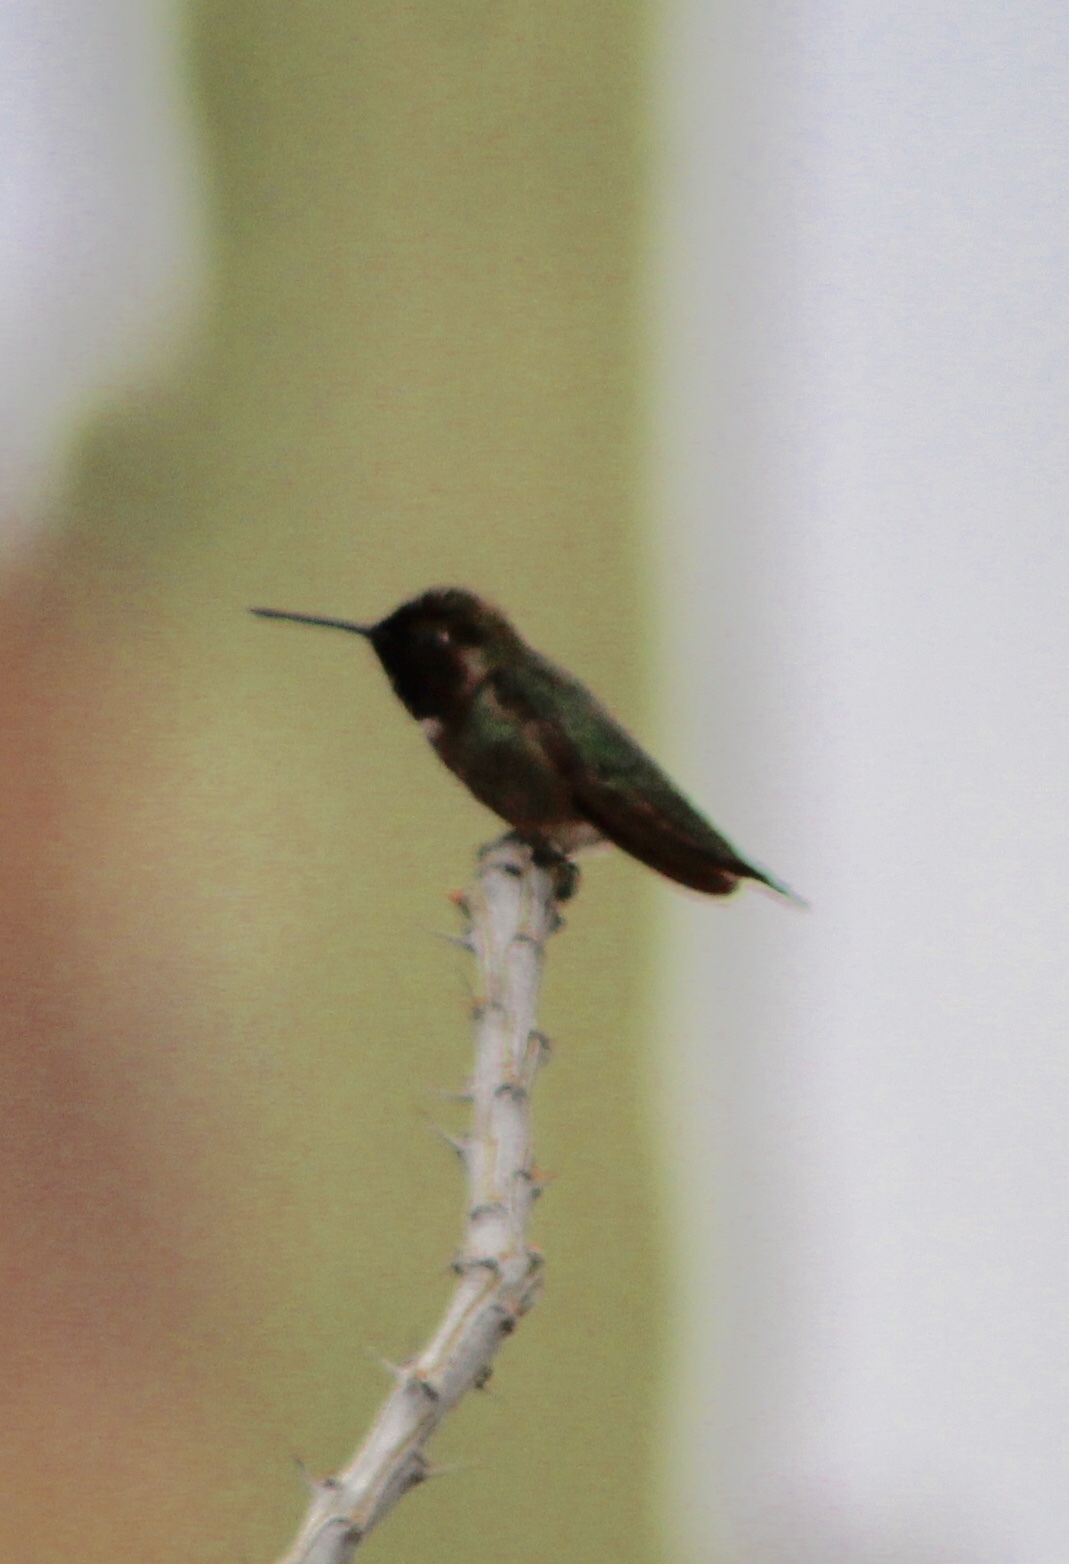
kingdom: Animalia
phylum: Chordata
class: Aves
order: Apodiformes
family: Trochilidae
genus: Calypte
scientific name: Calypte anna
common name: Anna's hummingbird
